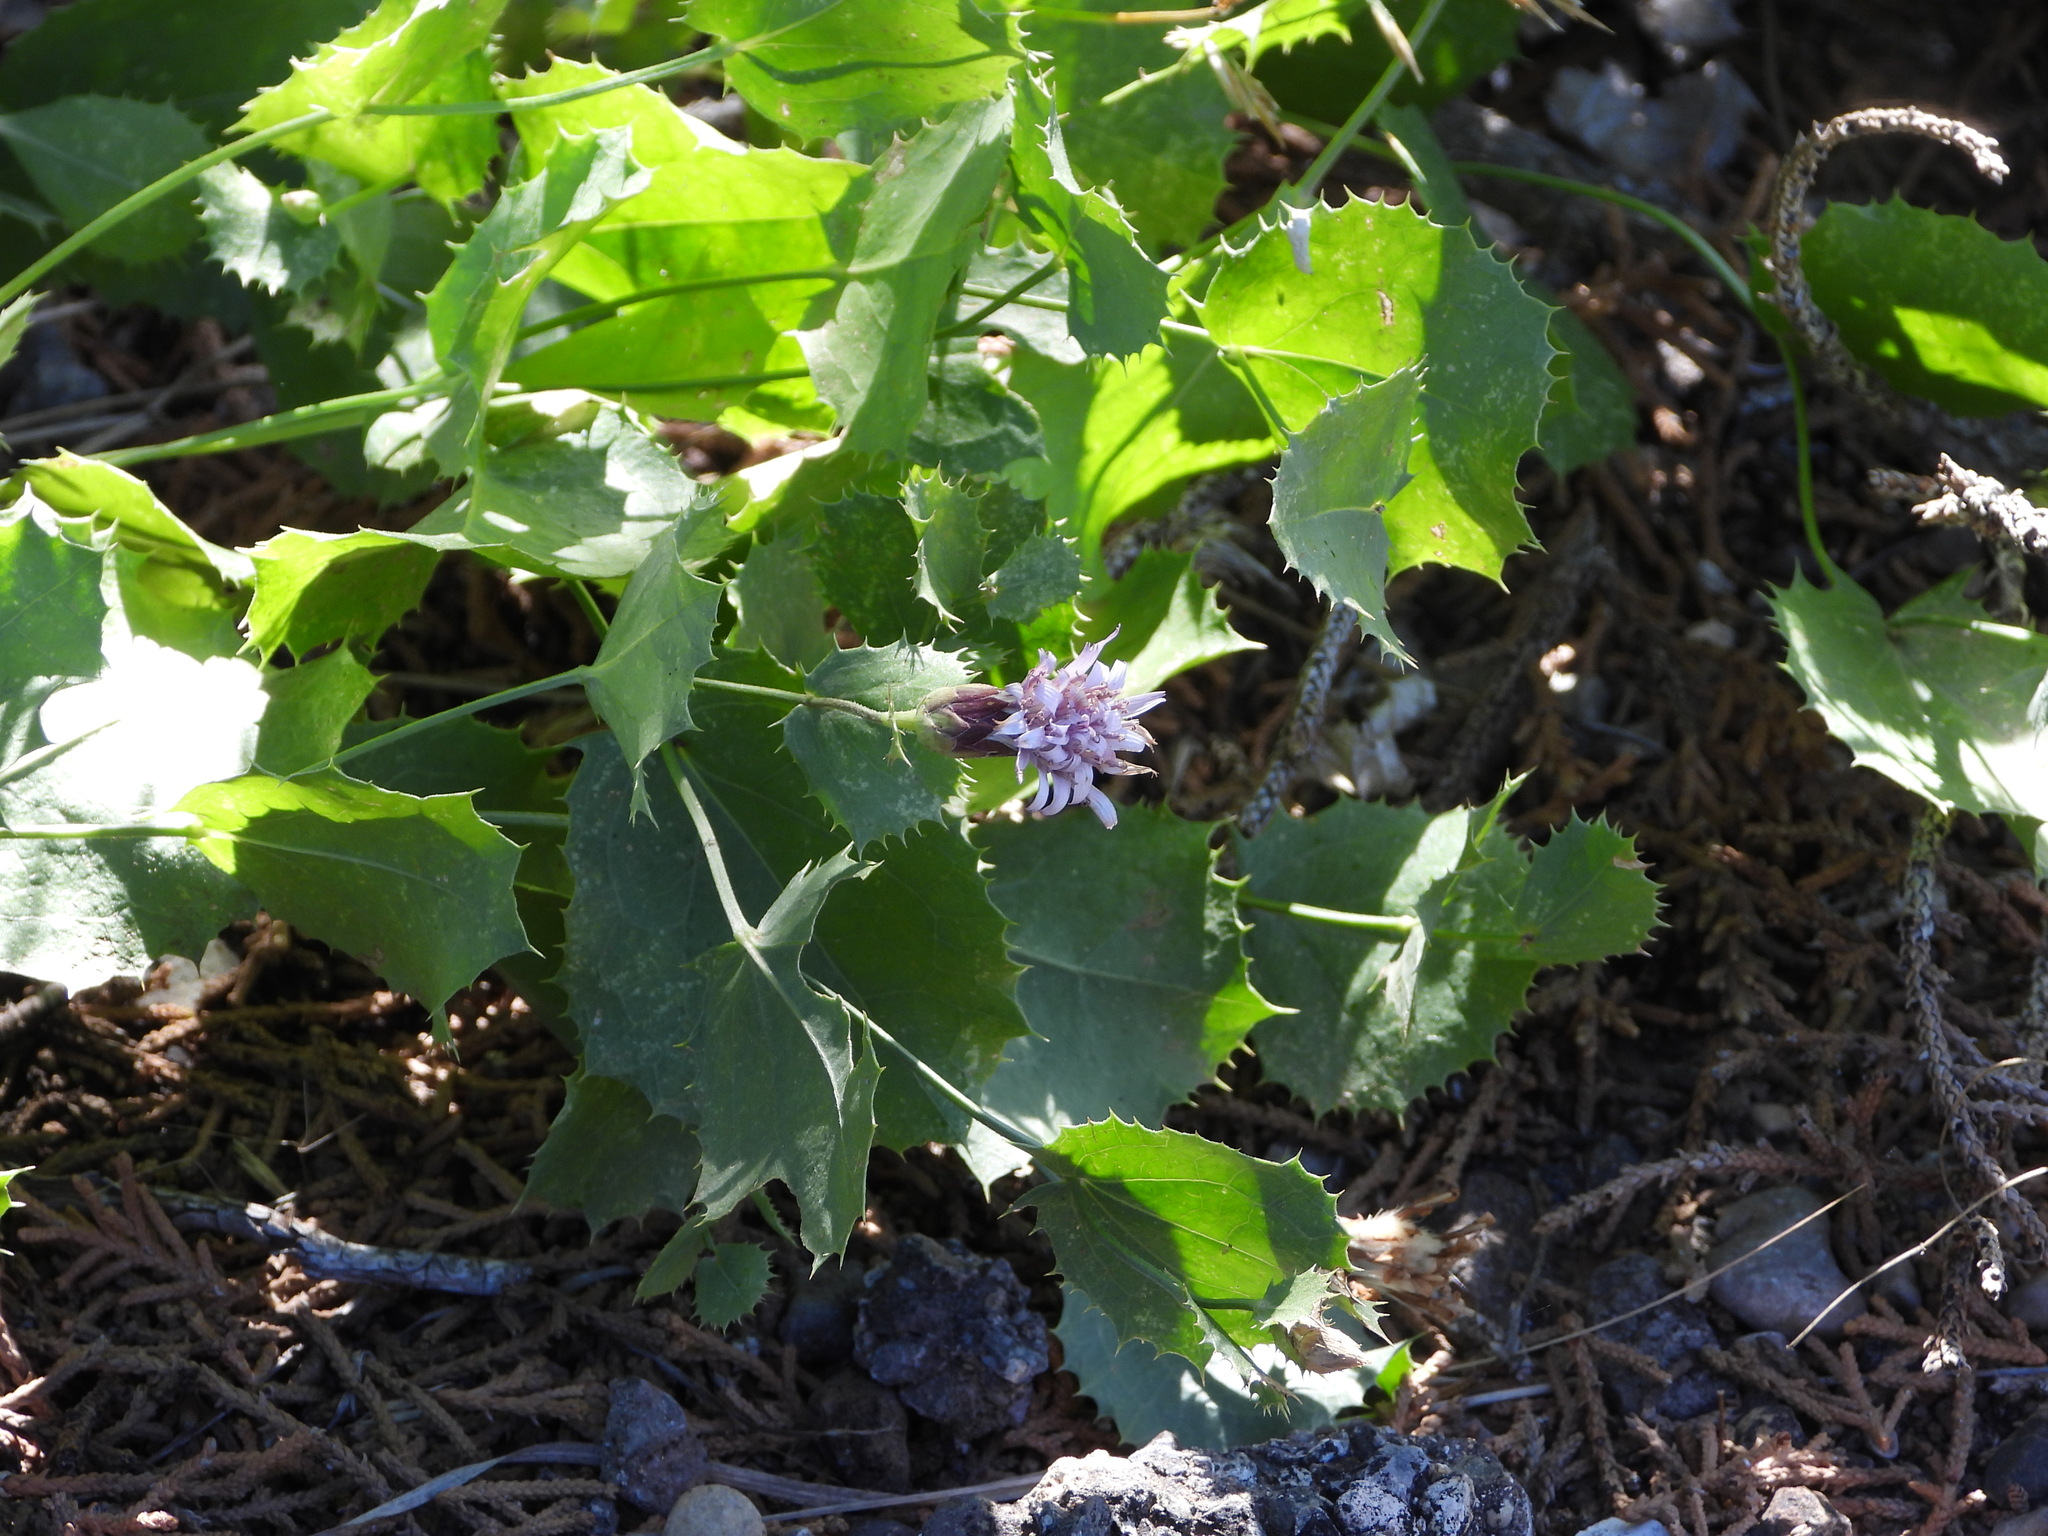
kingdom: Plantae
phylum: Tracheophyta
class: Magnoliopsida
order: Asterales
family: Asteraceae
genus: Acourtia
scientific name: Acourtia nana
